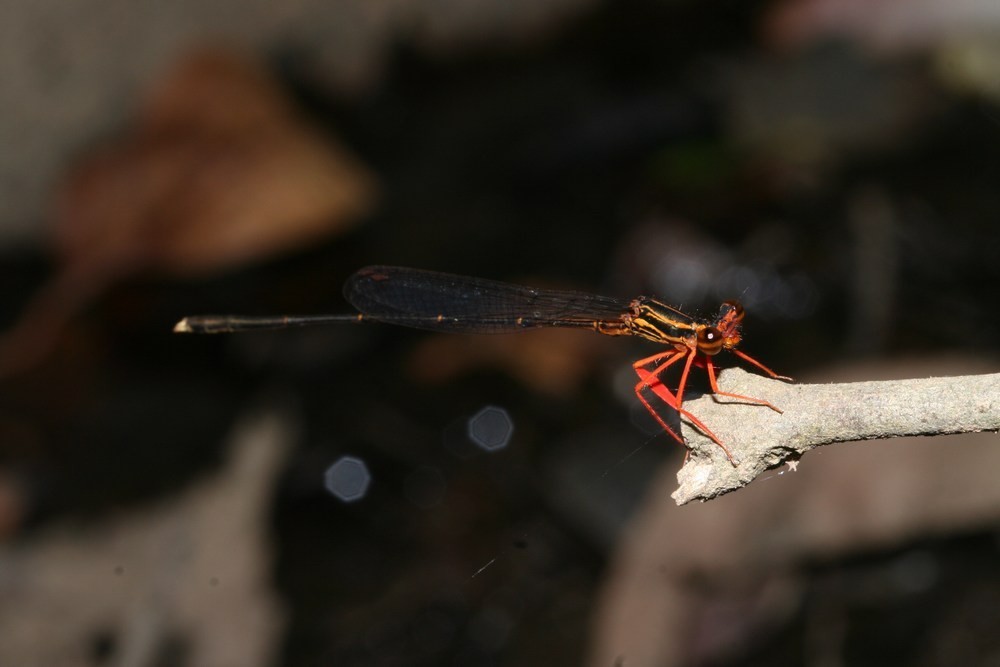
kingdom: Animalia
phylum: Arthropoda
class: Insecta
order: Odonata
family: Platycnemididae
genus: Proplatycnemis
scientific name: Proplatycnemis sanguinipes
